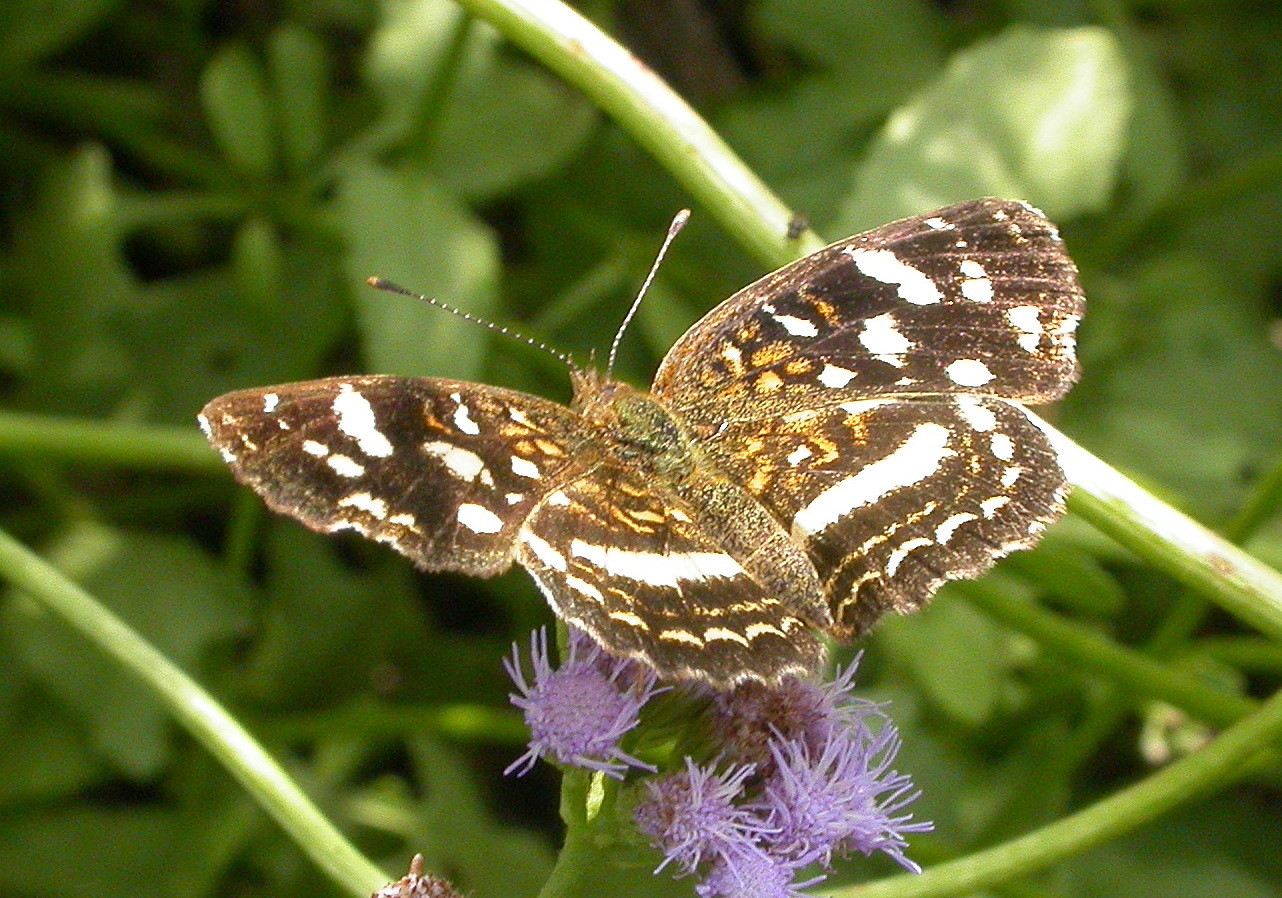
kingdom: Animalia
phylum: Arthropoda
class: Insecta
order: Lepidoptera
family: Nymphalidae
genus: Anthanassa
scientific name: Anthanassa tulcis
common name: Pale-banded crescent
